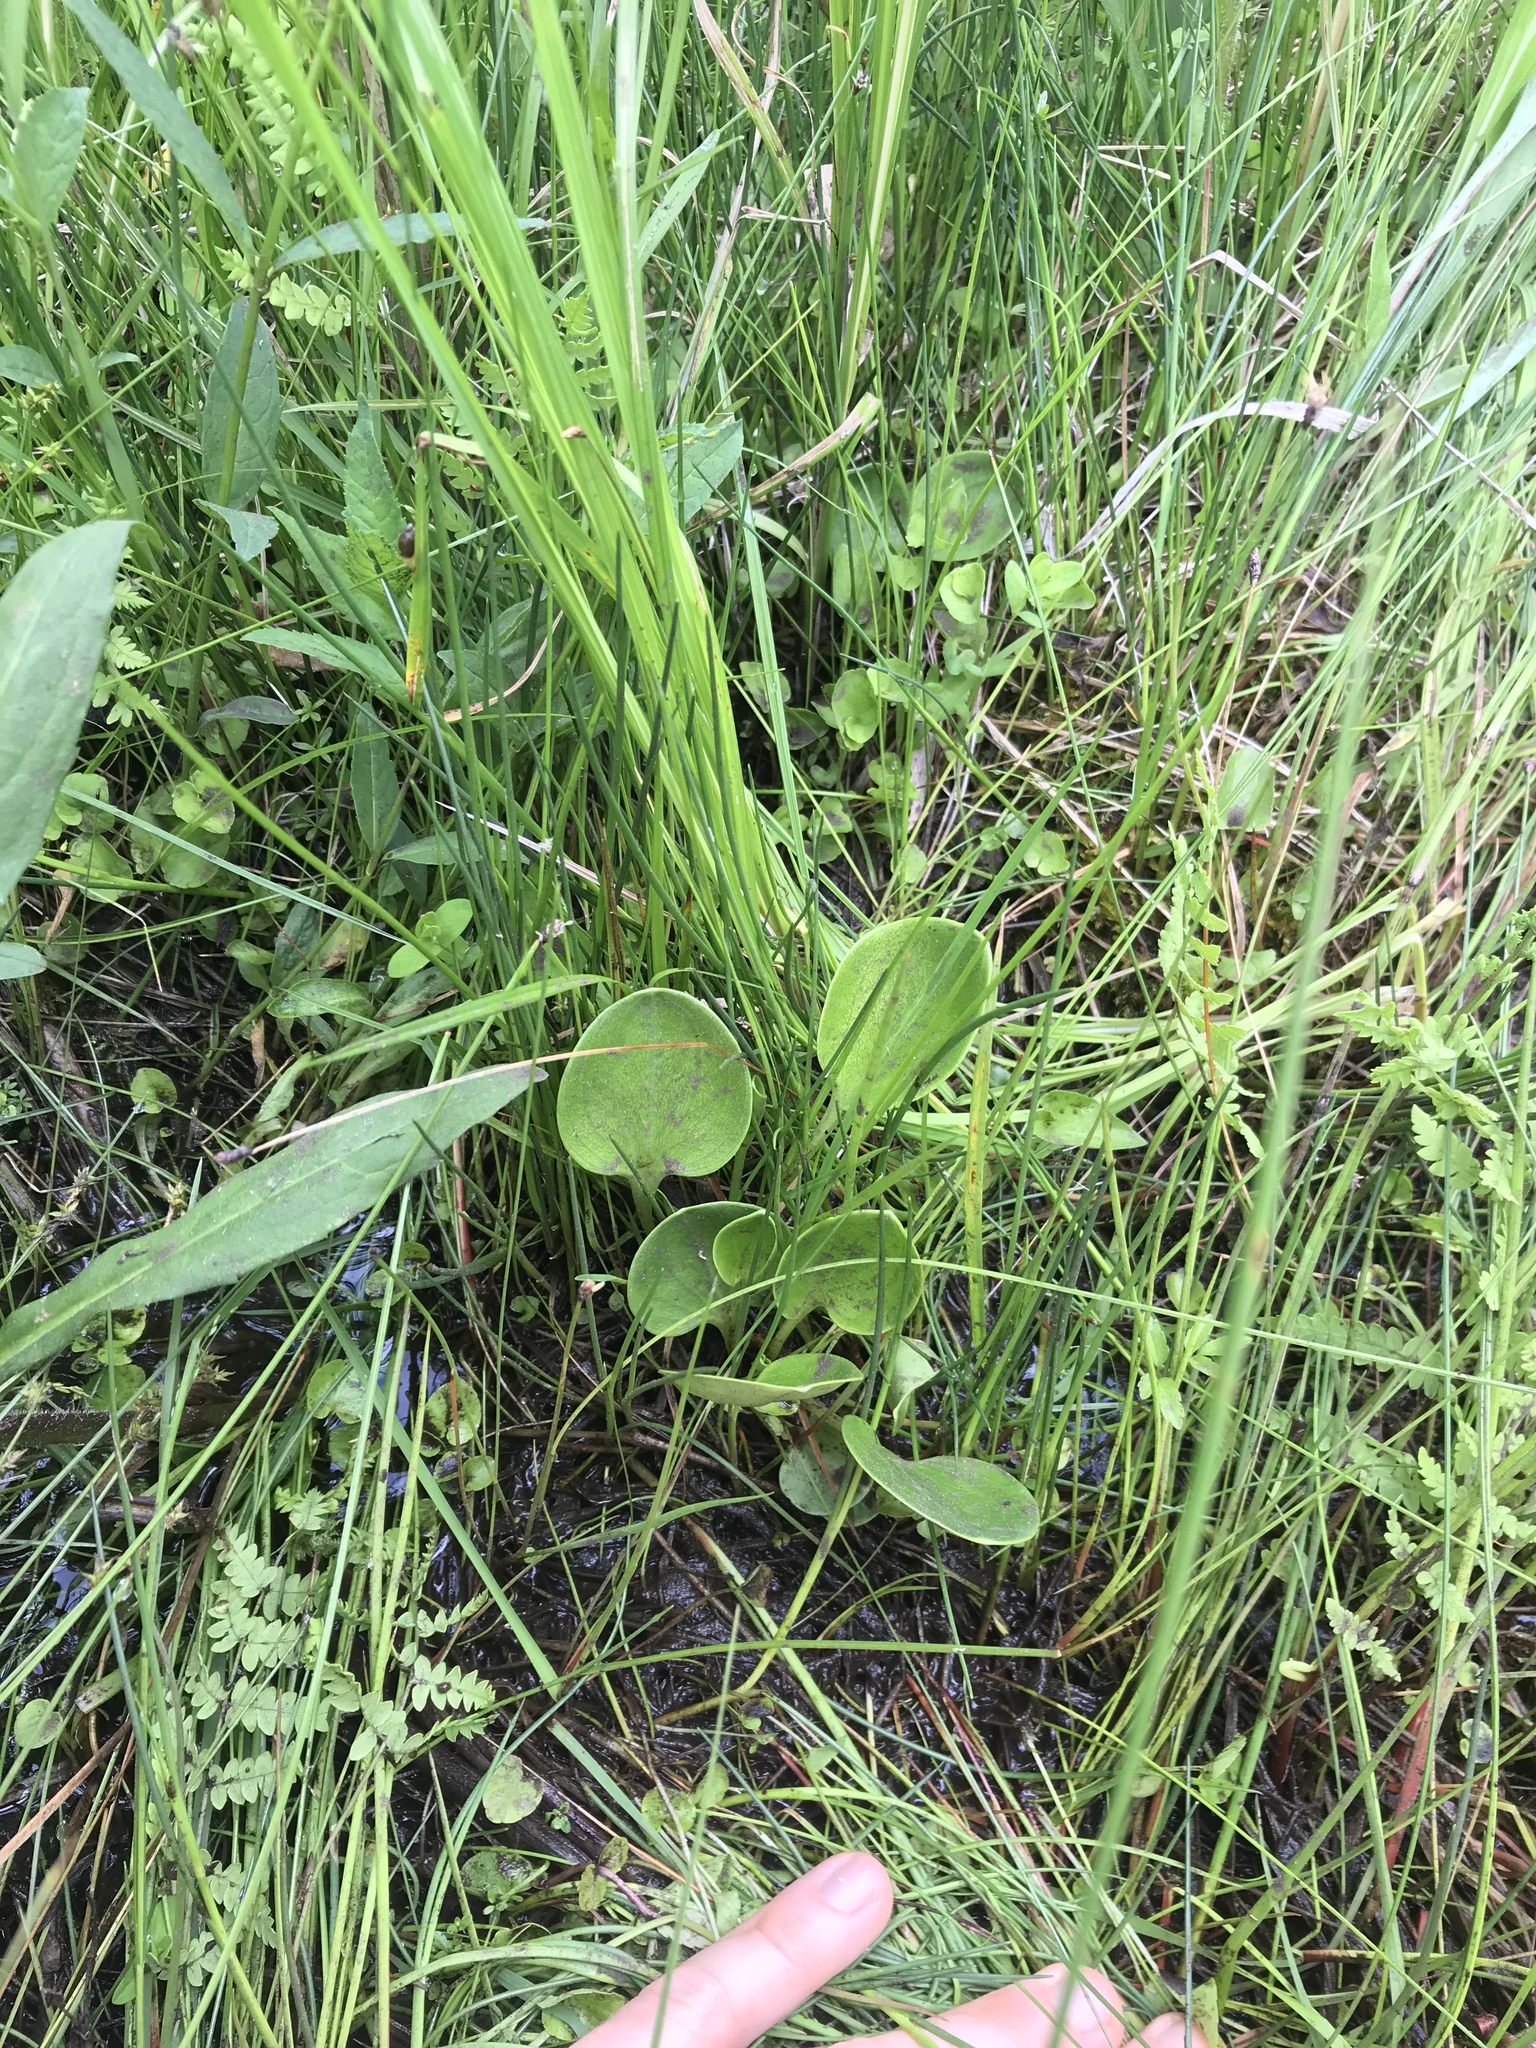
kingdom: Plantae
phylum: Tracheophyta
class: Magnoliopsida
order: Celastrales
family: Parnassiaceae
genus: Parnassia
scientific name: Parnassia glauca
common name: American grass-of-parnassus
